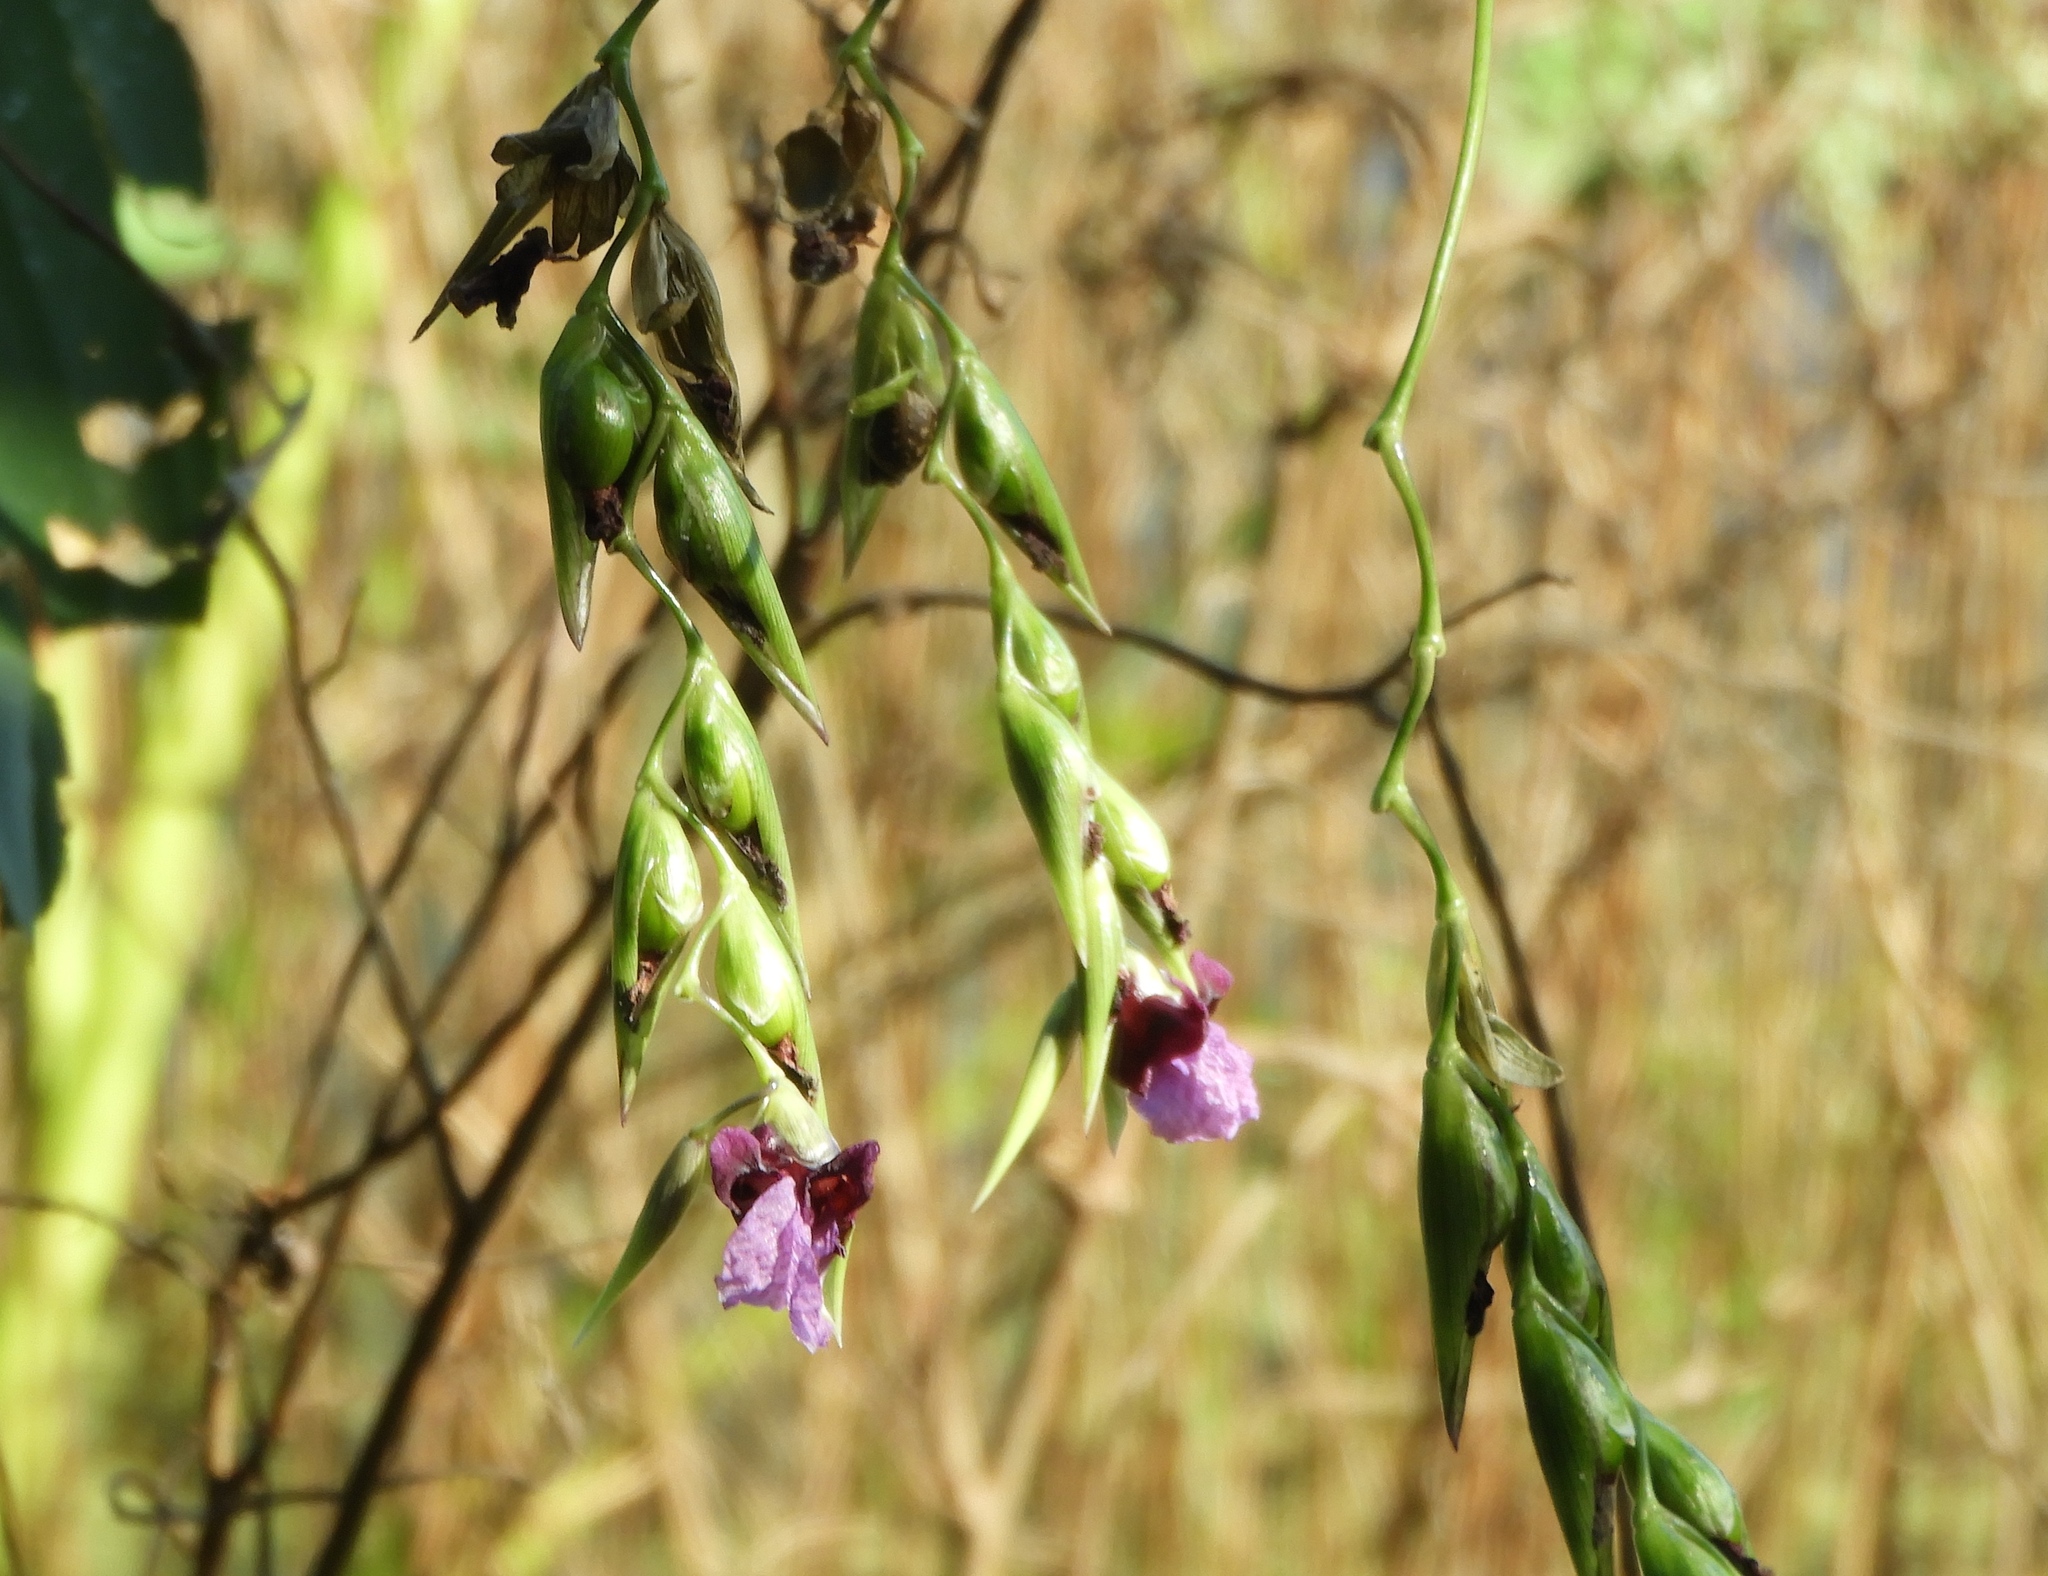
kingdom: Plantae
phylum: Tracheophyta
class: Liliopsida
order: Zingiberales
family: Marantaceae
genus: Thalia
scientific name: Thalia geniculata
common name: Arrowroot
